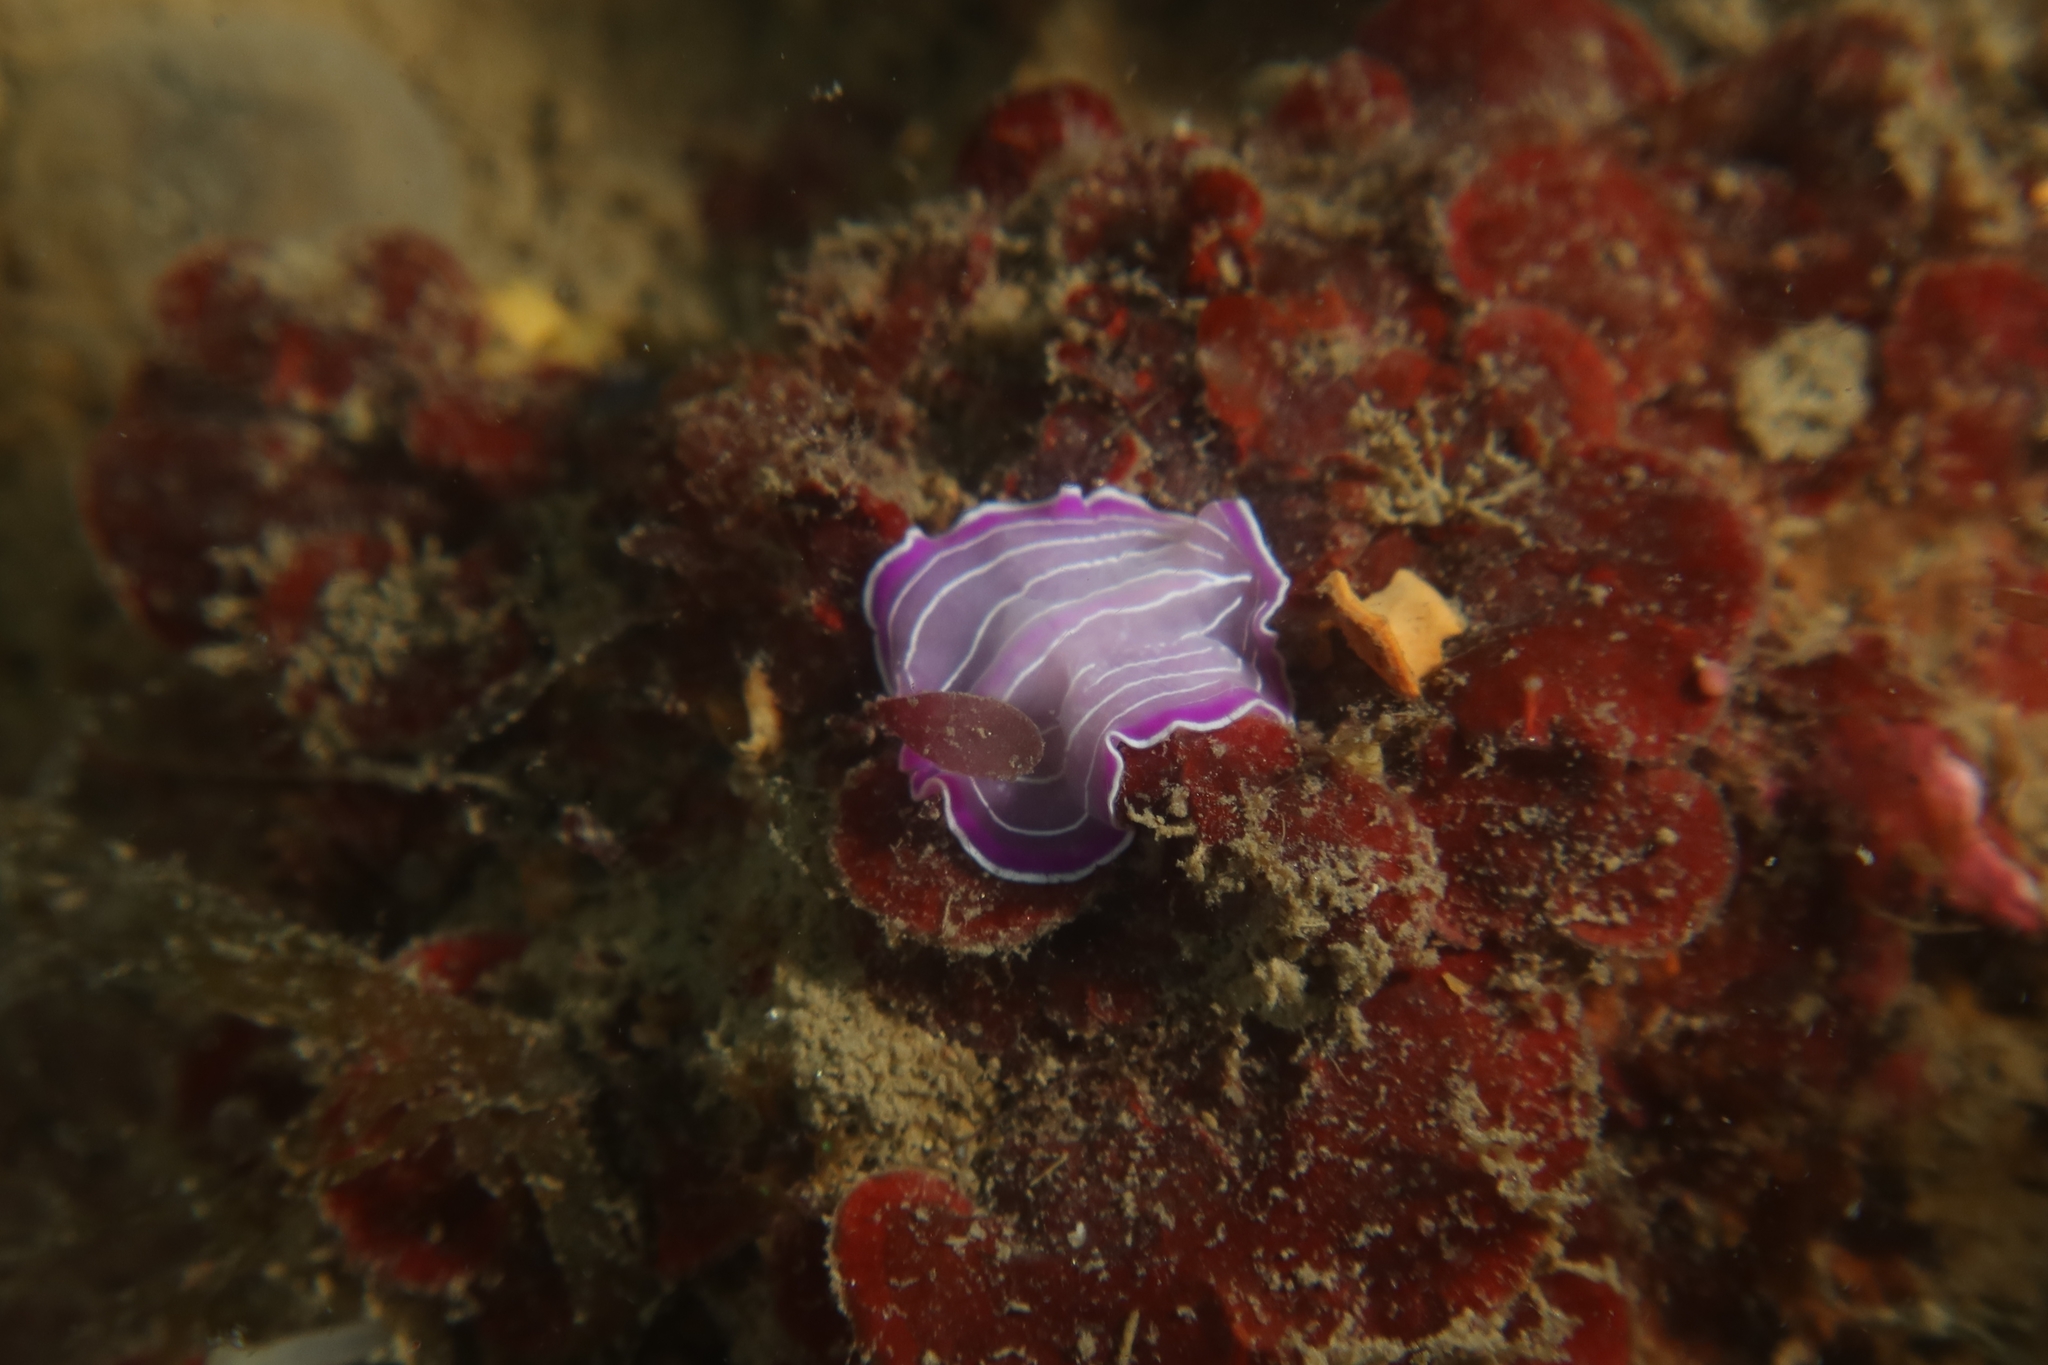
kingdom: Animalia
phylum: Platyhelminthes
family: Euryleptidae
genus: Prostheceraeus
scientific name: Prostheceraeus roseus
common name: Pink flatworm
